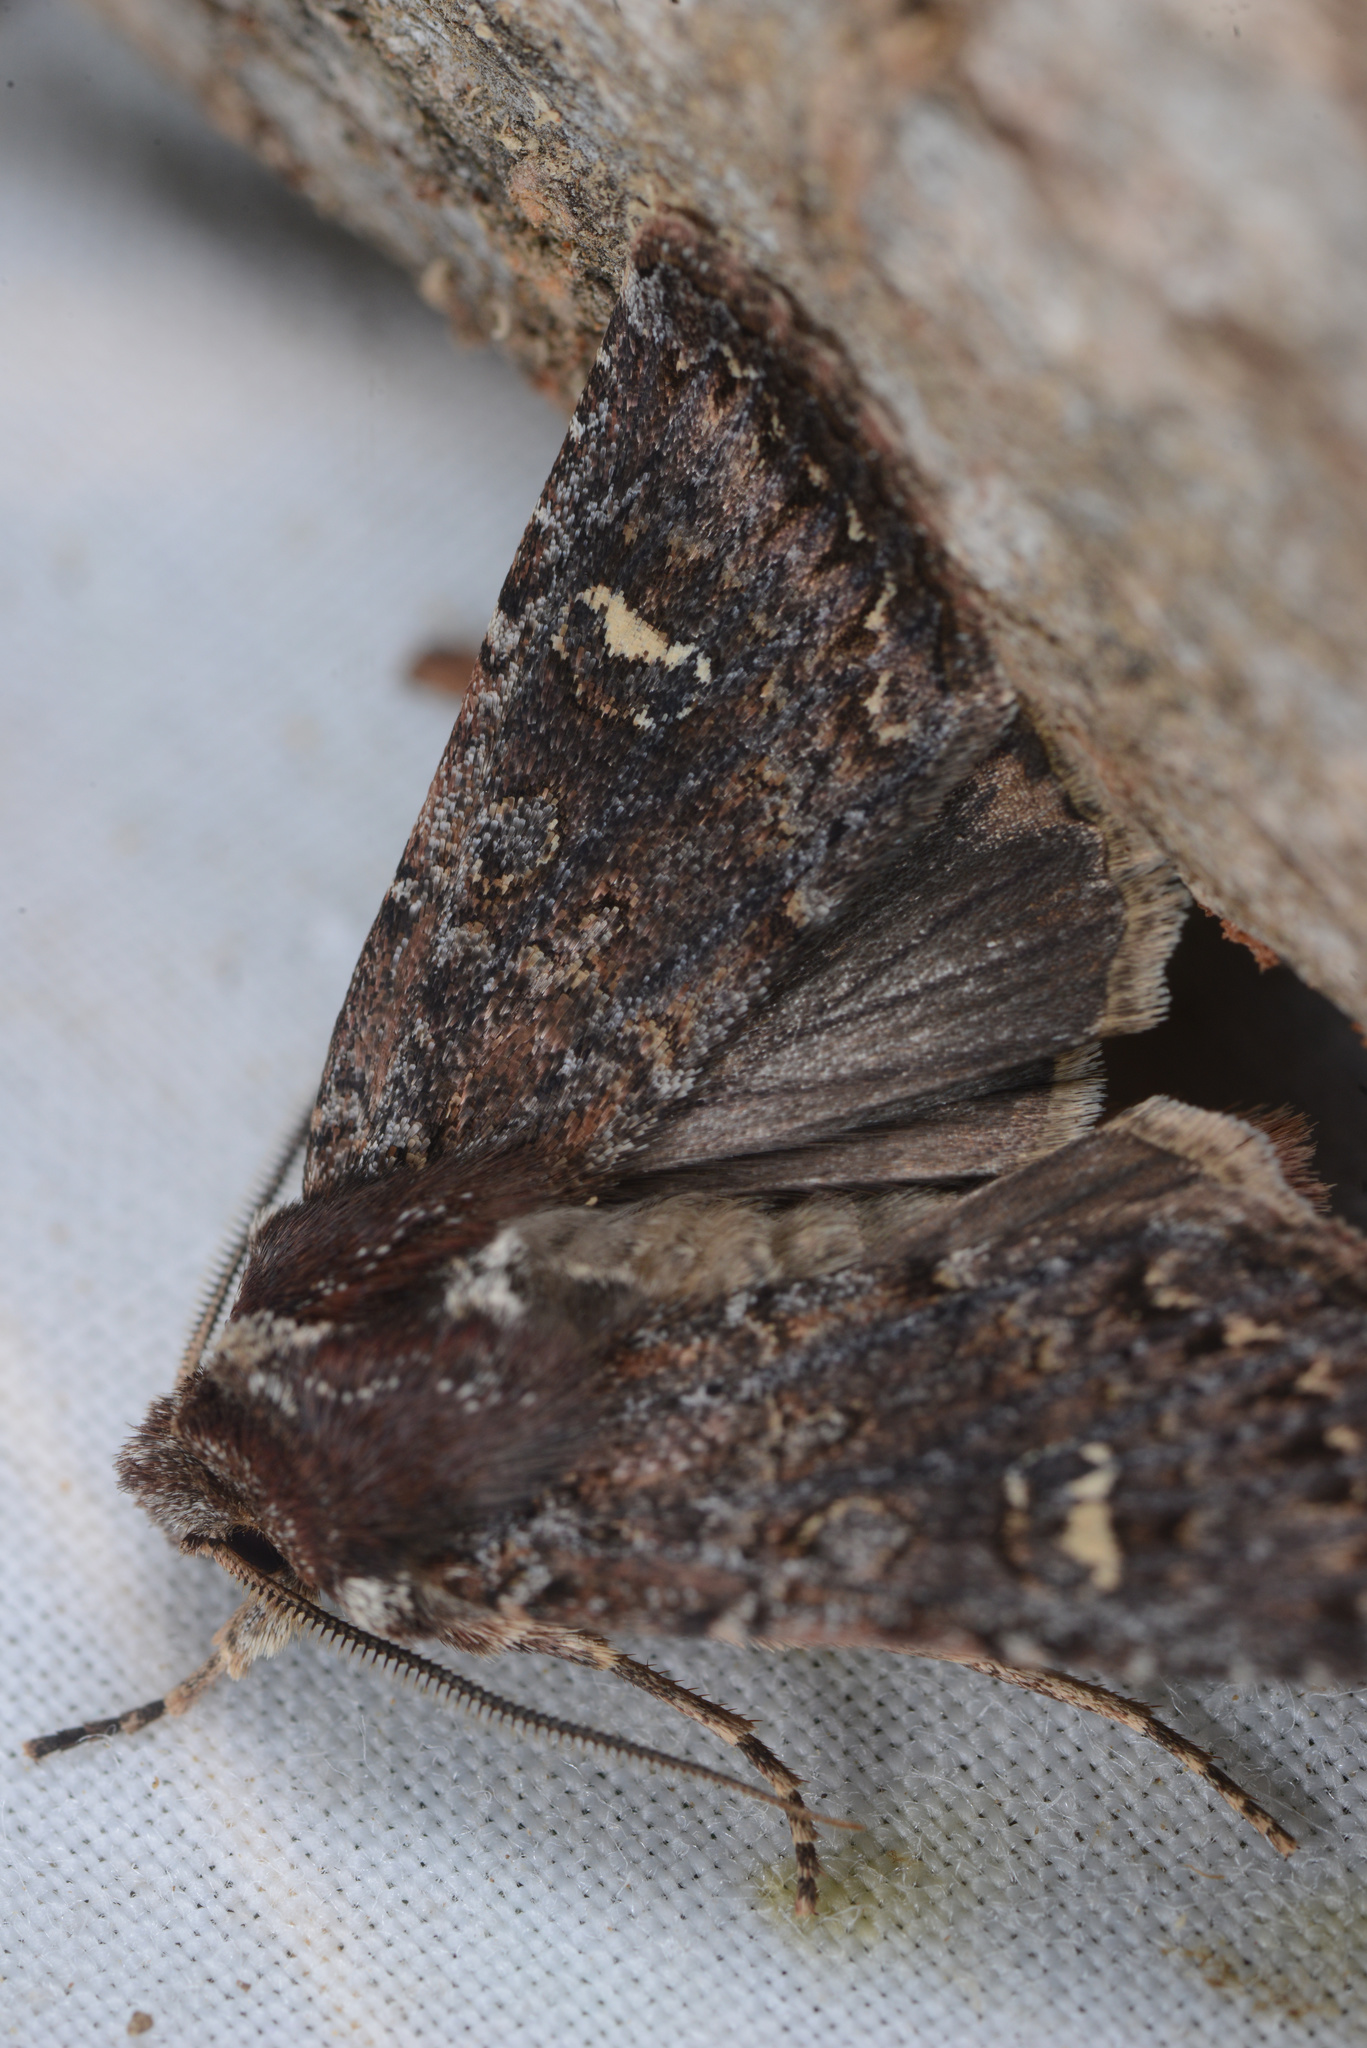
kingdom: Animalia
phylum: Arthropoda
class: Insecta
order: Lepidoptera
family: Noctuidae
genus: Ichneutica
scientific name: Ichneutica agorastis
